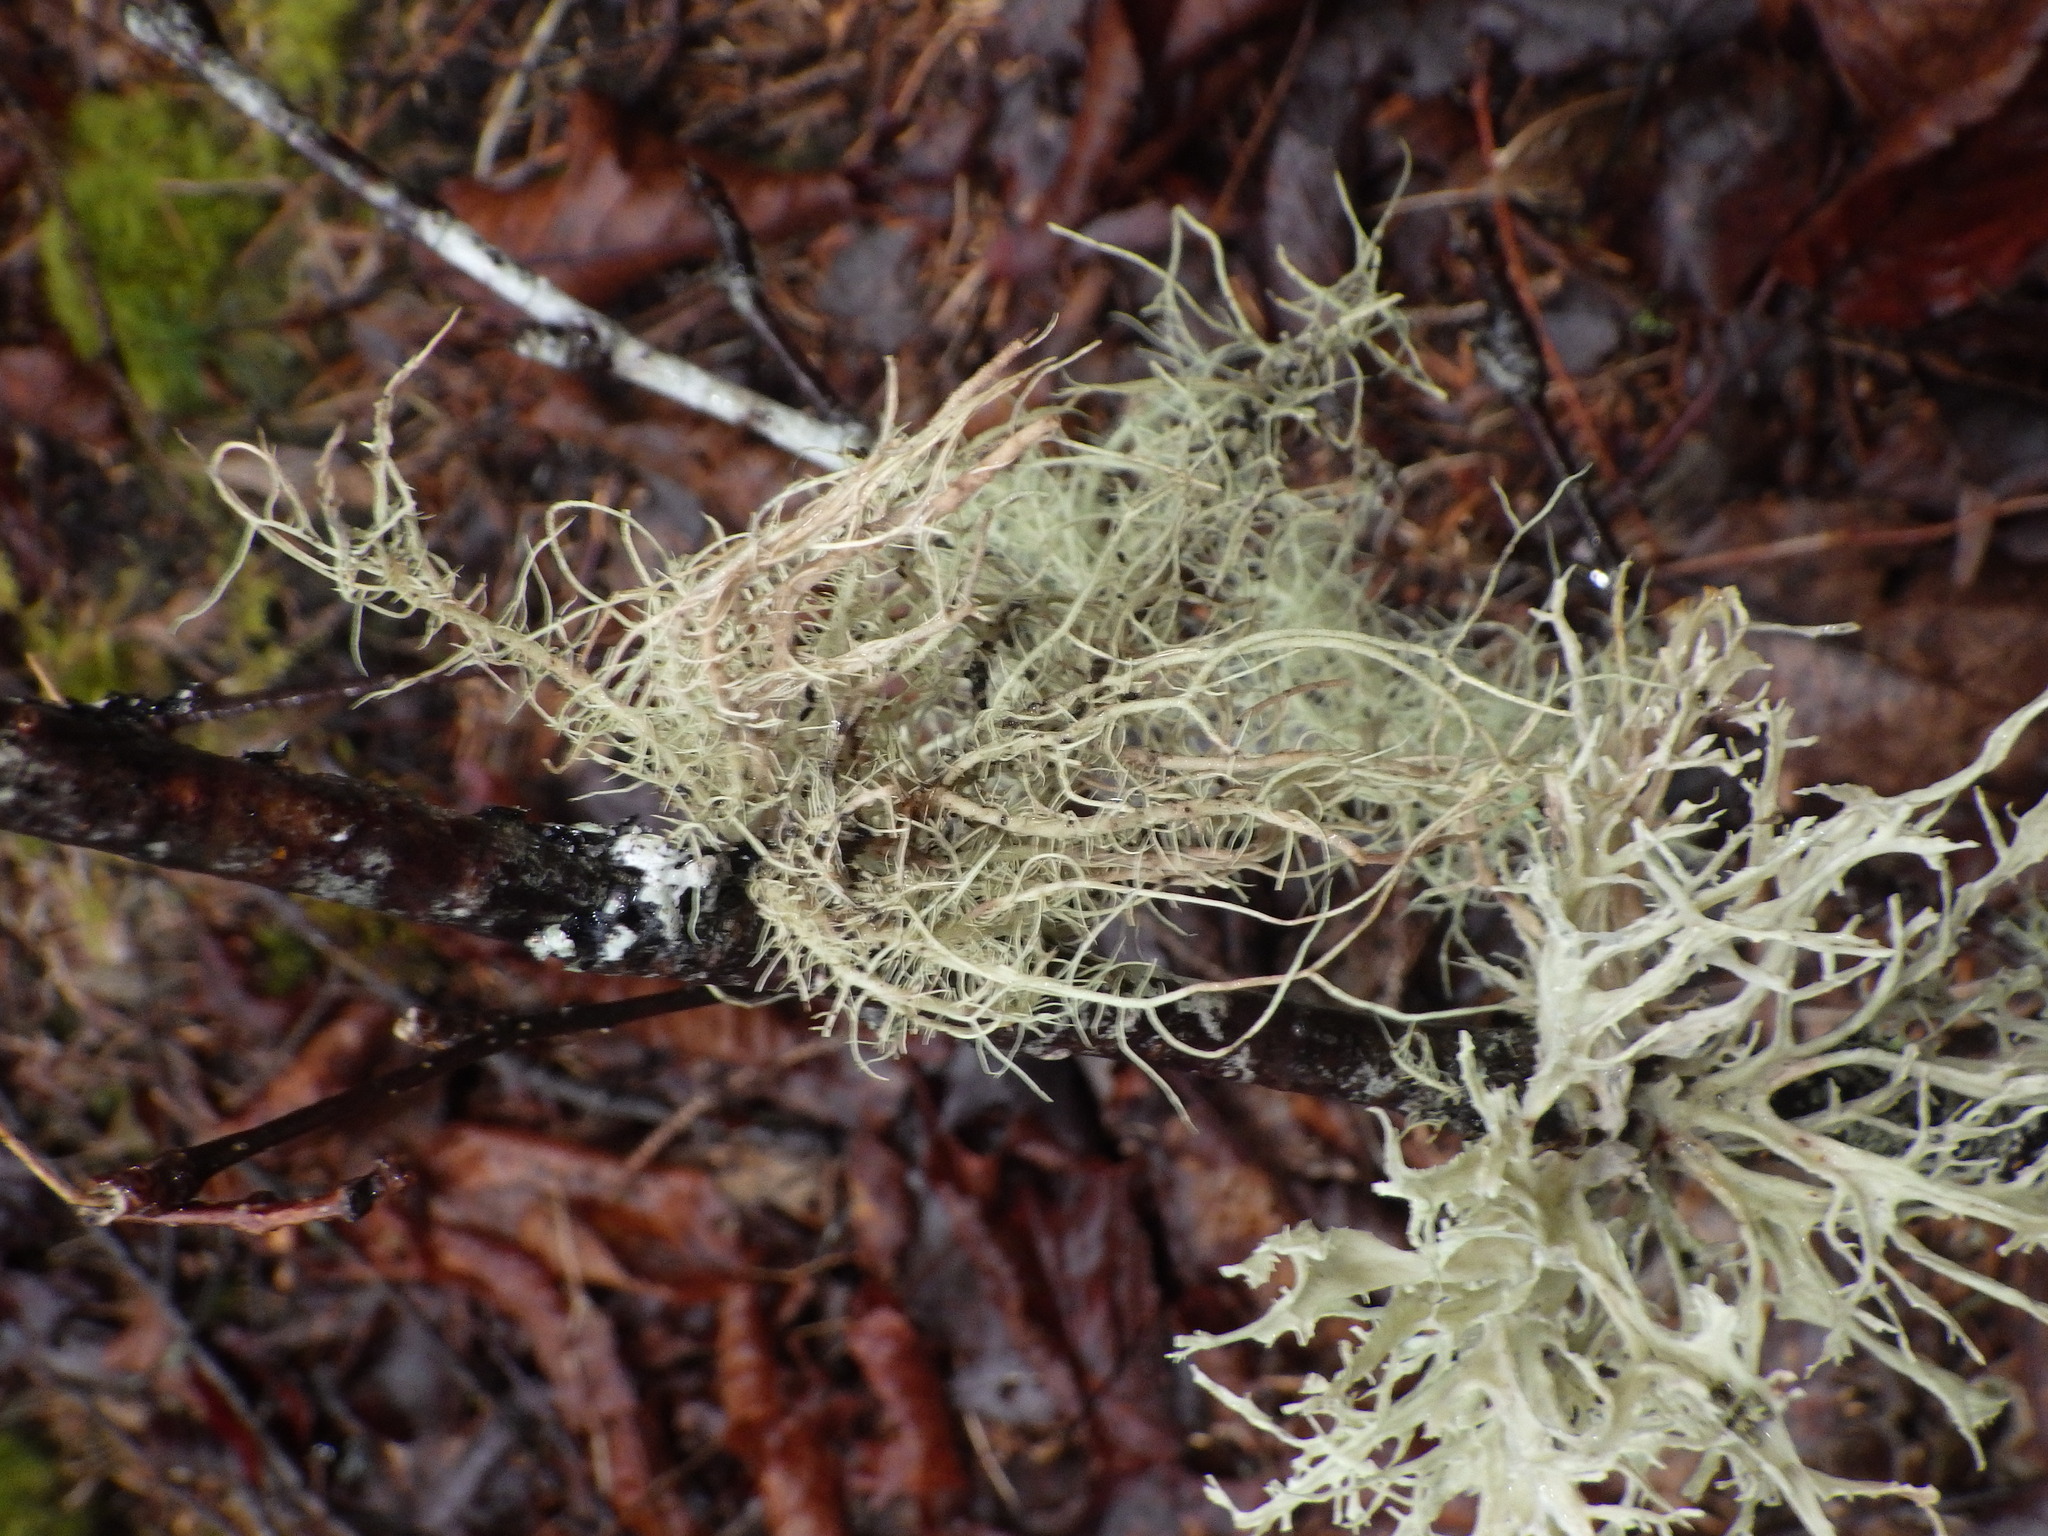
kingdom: Fungi
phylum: Ascomycota
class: Lecanoromycetes
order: Lecanorales
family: Parmeliaceae
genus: Usnea
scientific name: Usnea strigosa
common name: Bushy beard lichen
